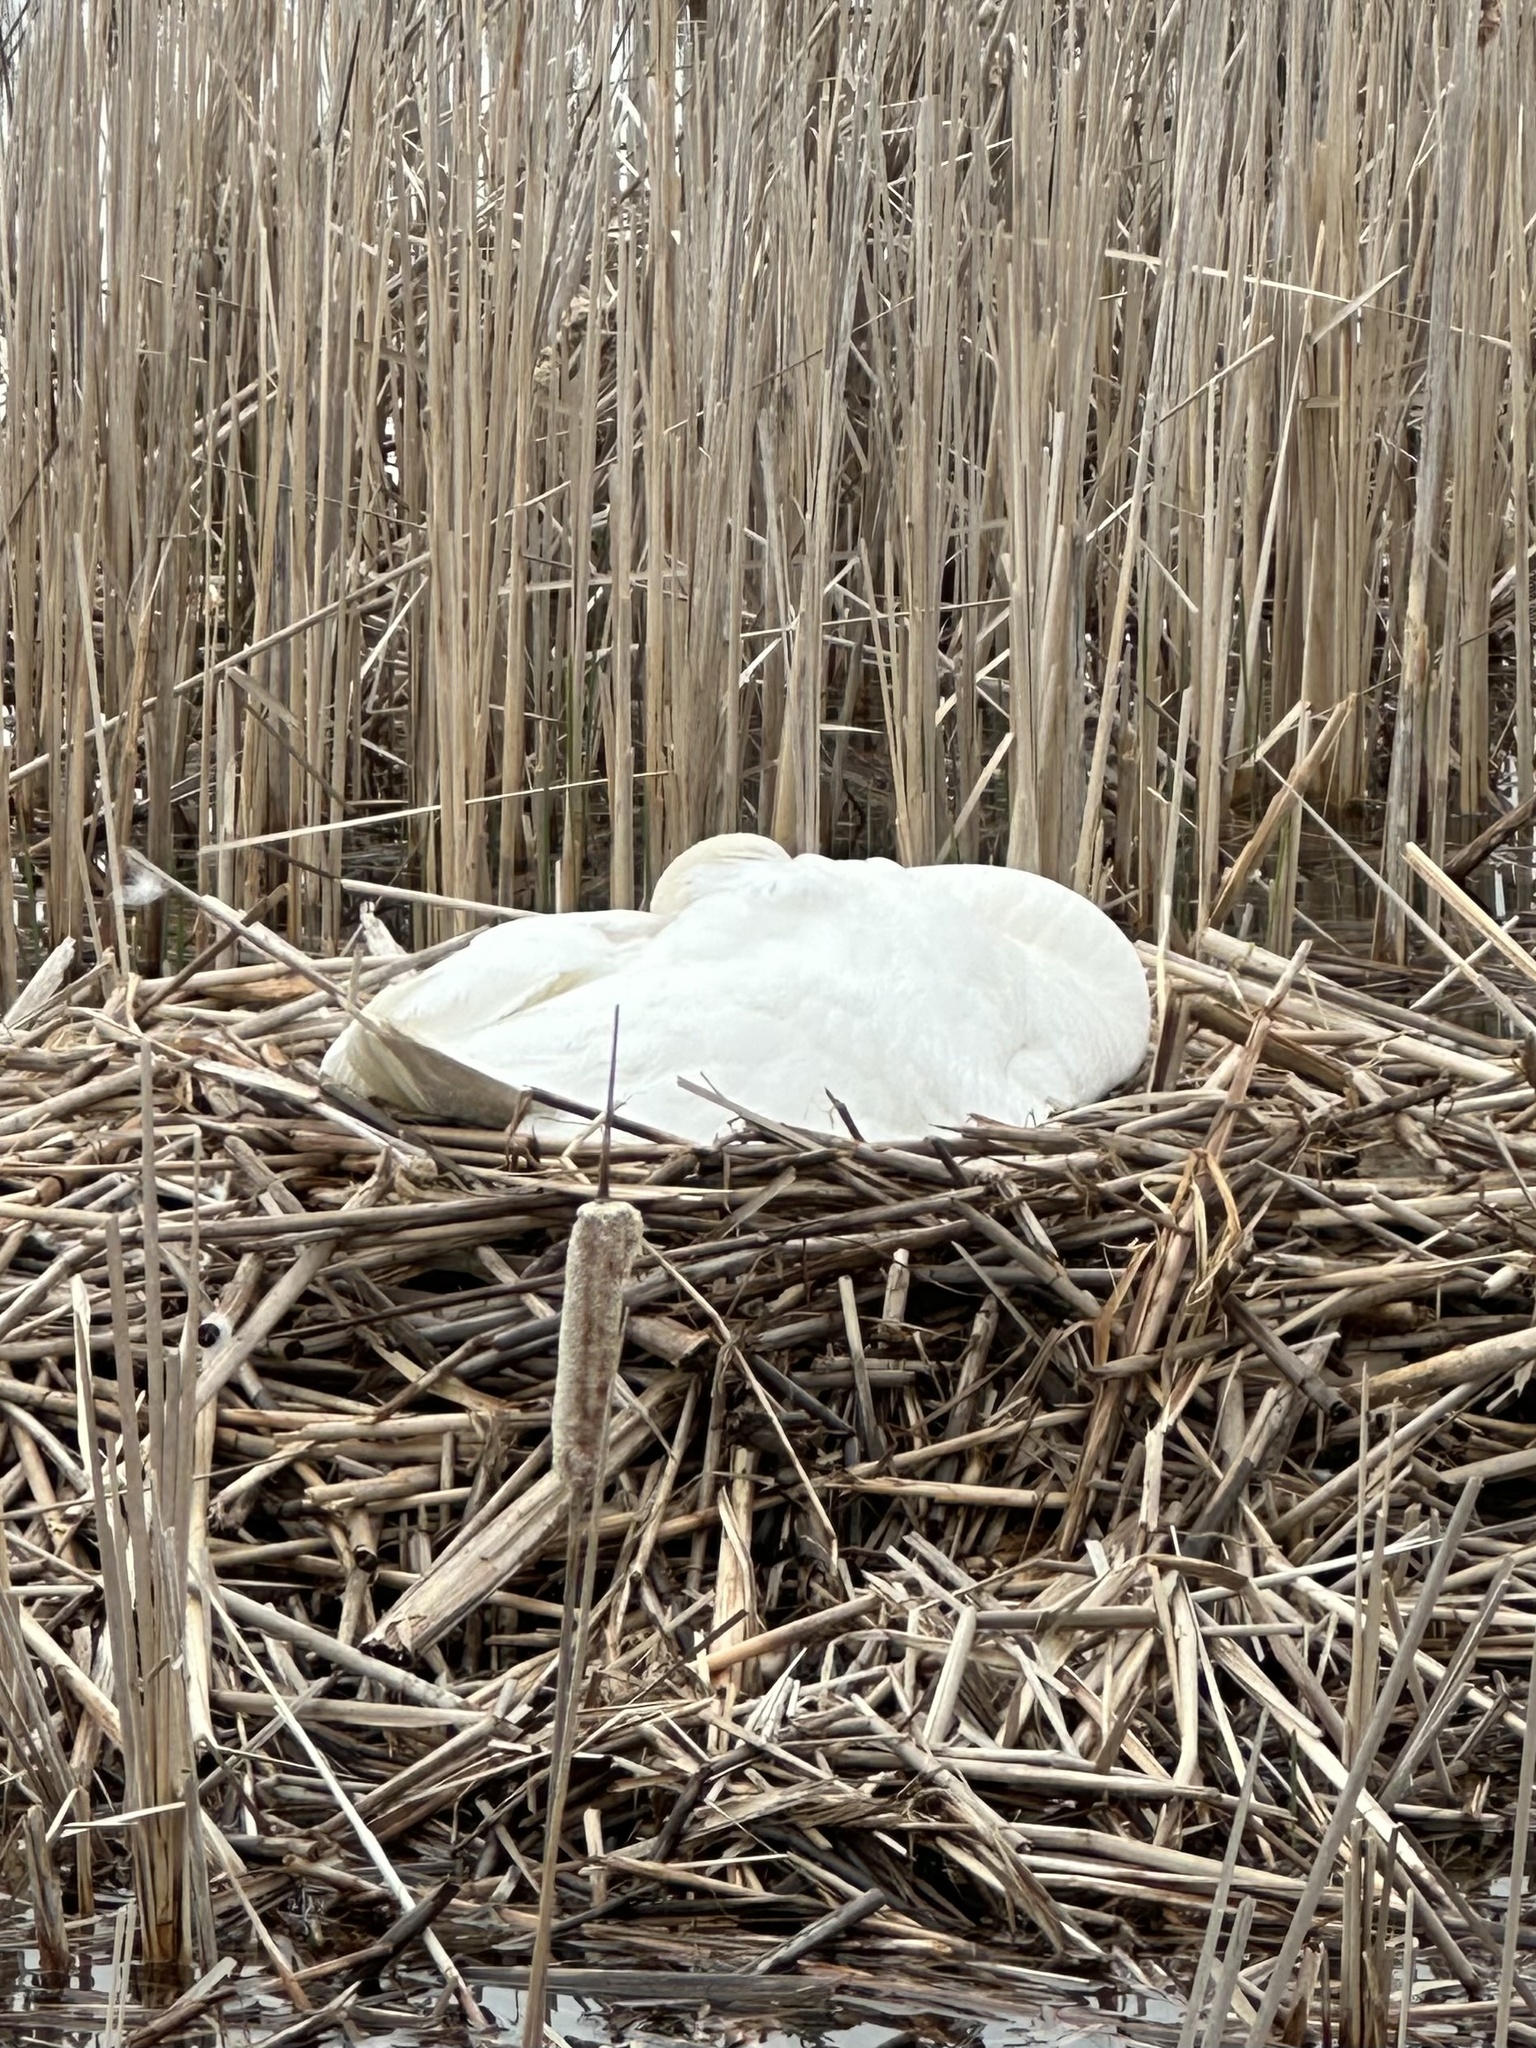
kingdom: Animalia
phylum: Chordata
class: Aves
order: Anseriformes
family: Anatidae
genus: Cygnus
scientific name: Cygnus olor
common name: Mute swan
